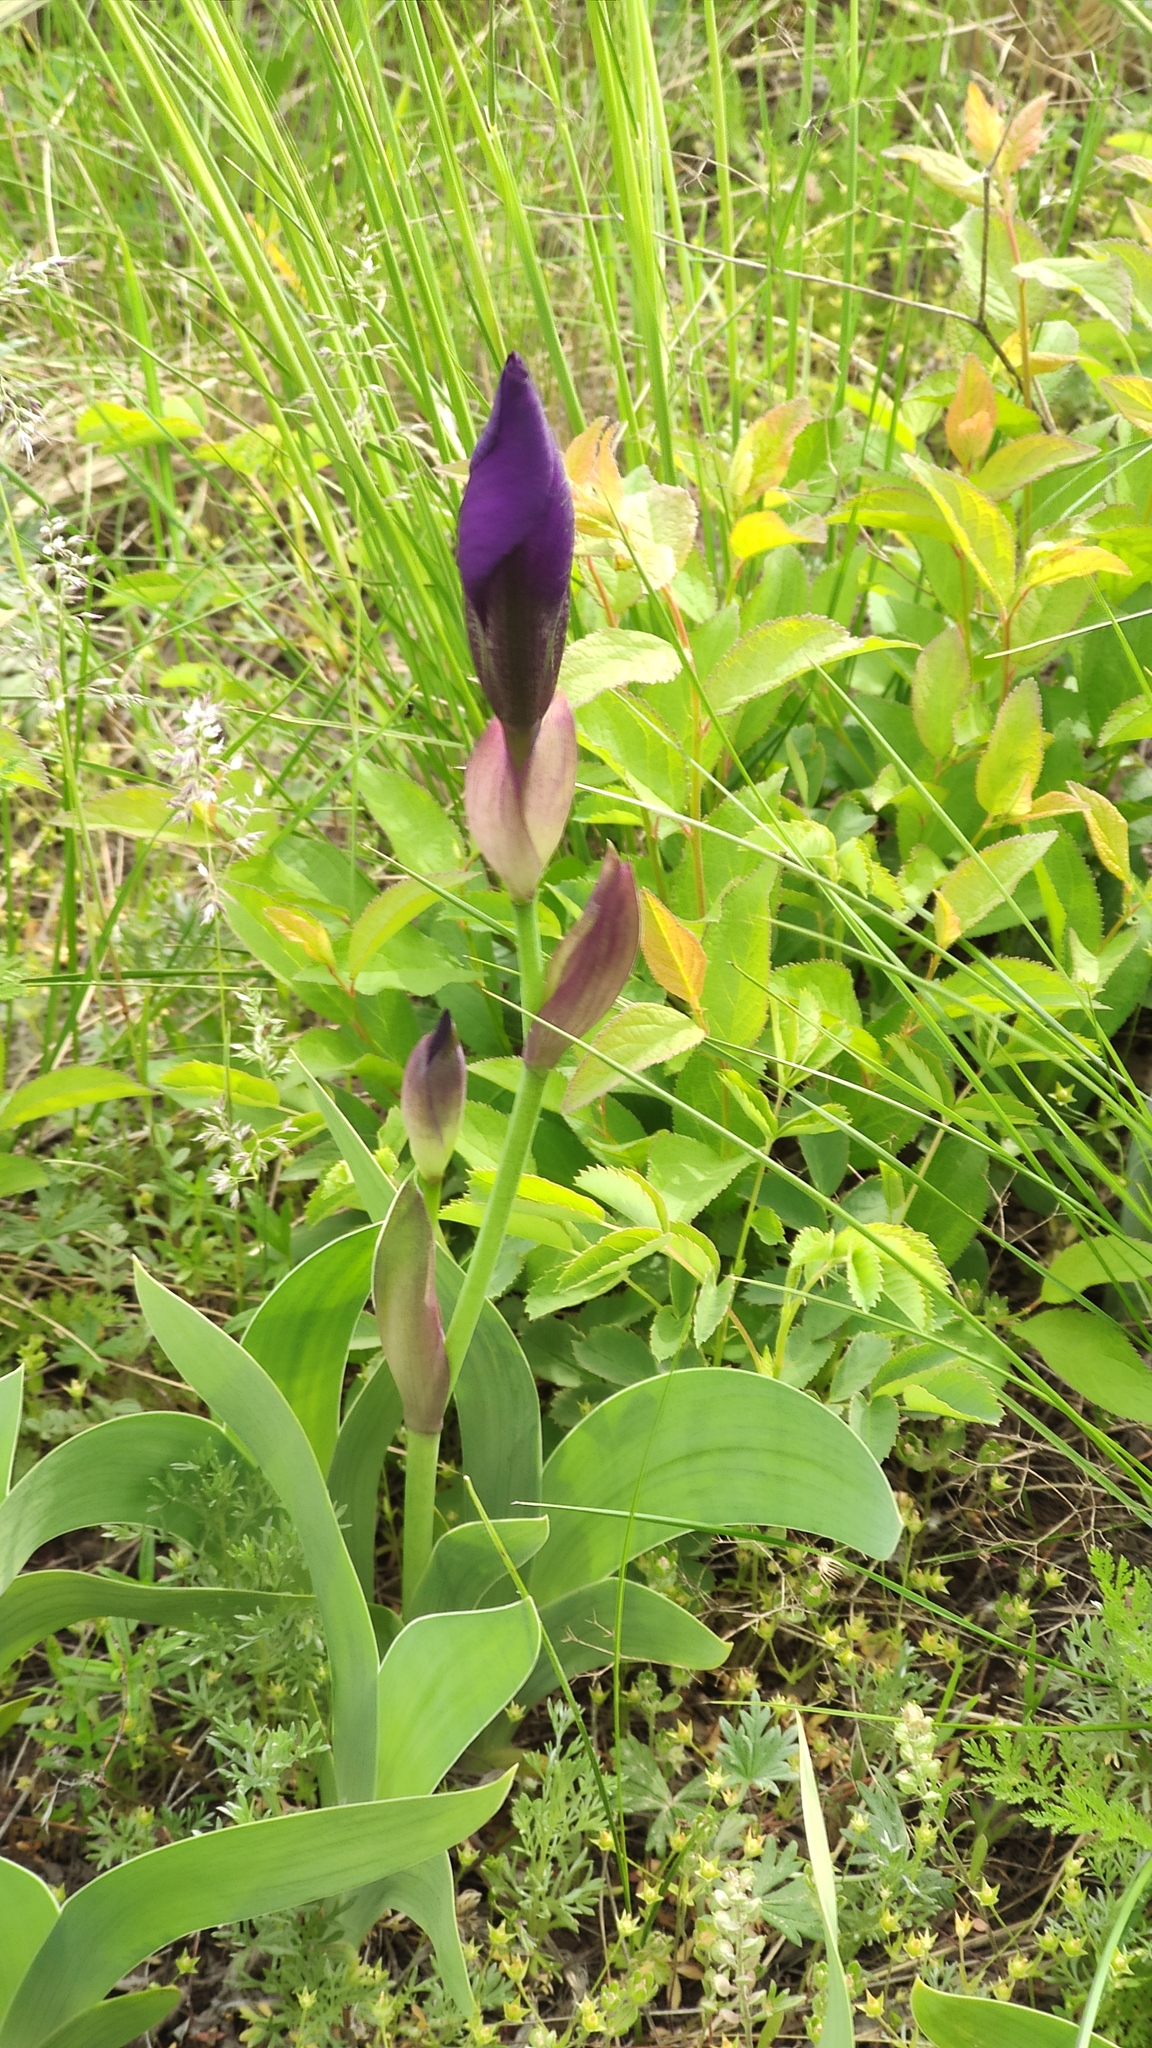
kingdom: Plantae
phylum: Tracheophyta
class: Liliopsida
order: Asparagales
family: Iridaceae
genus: Iris
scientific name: Iris aphylla
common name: Stool iris
